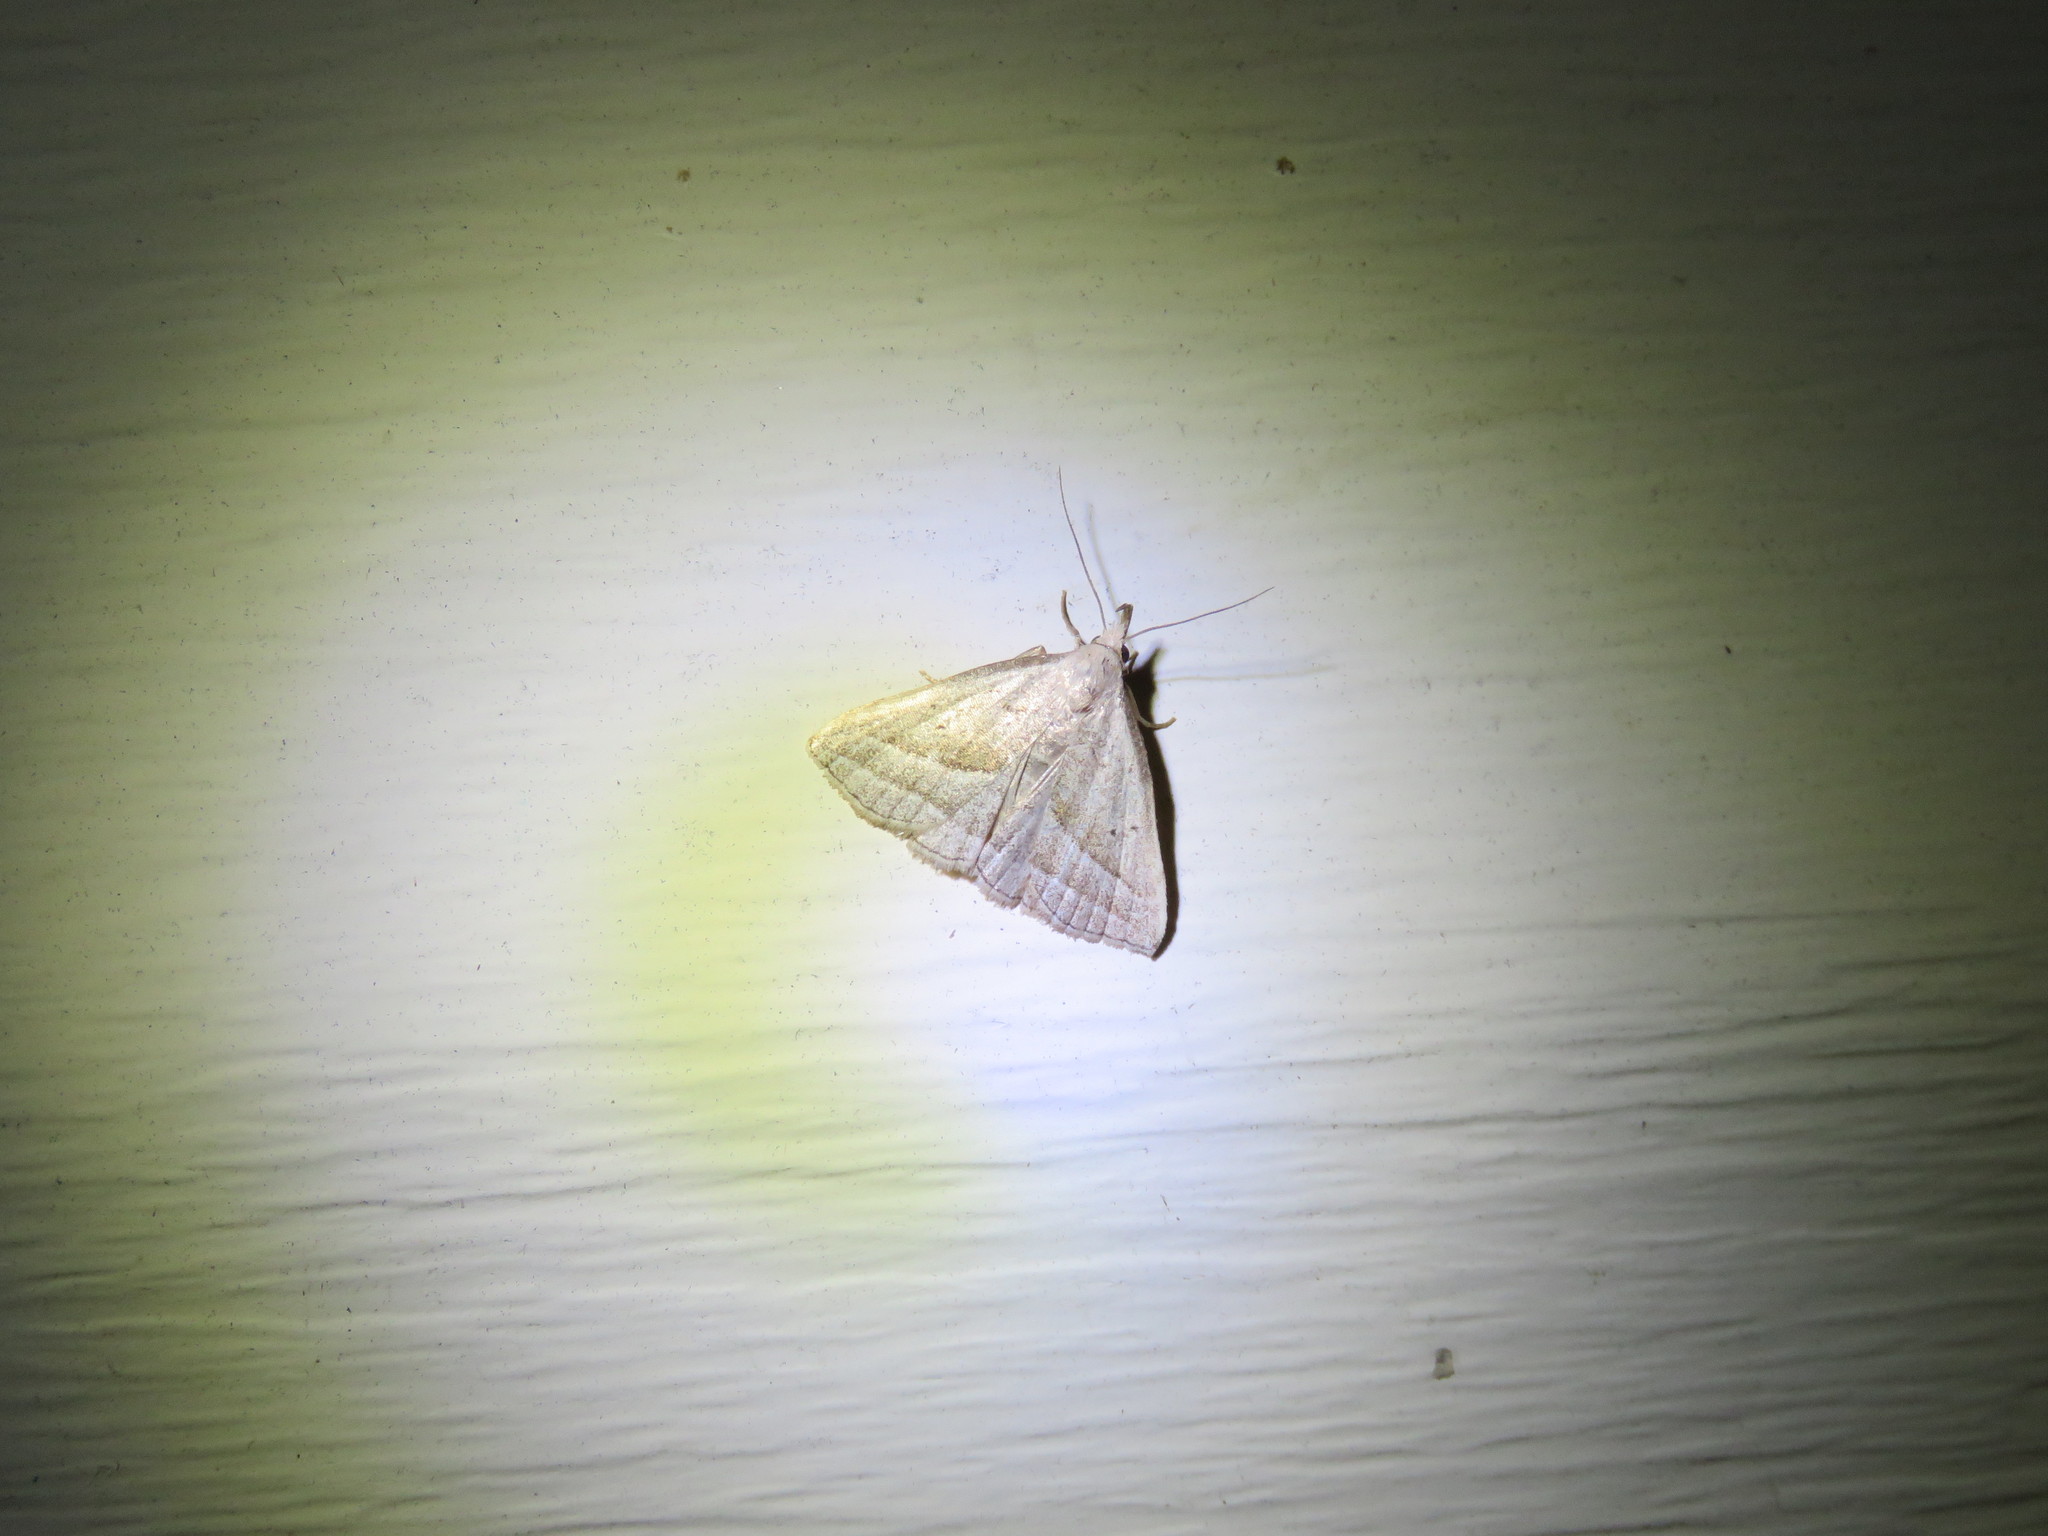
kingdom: Animalia
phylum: Arthropoda
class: Insecta
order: Lepidoptera
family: Erebidae
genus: Macrochilo
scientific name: Macrochilo absorptalis
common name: Slant-lined owlet
